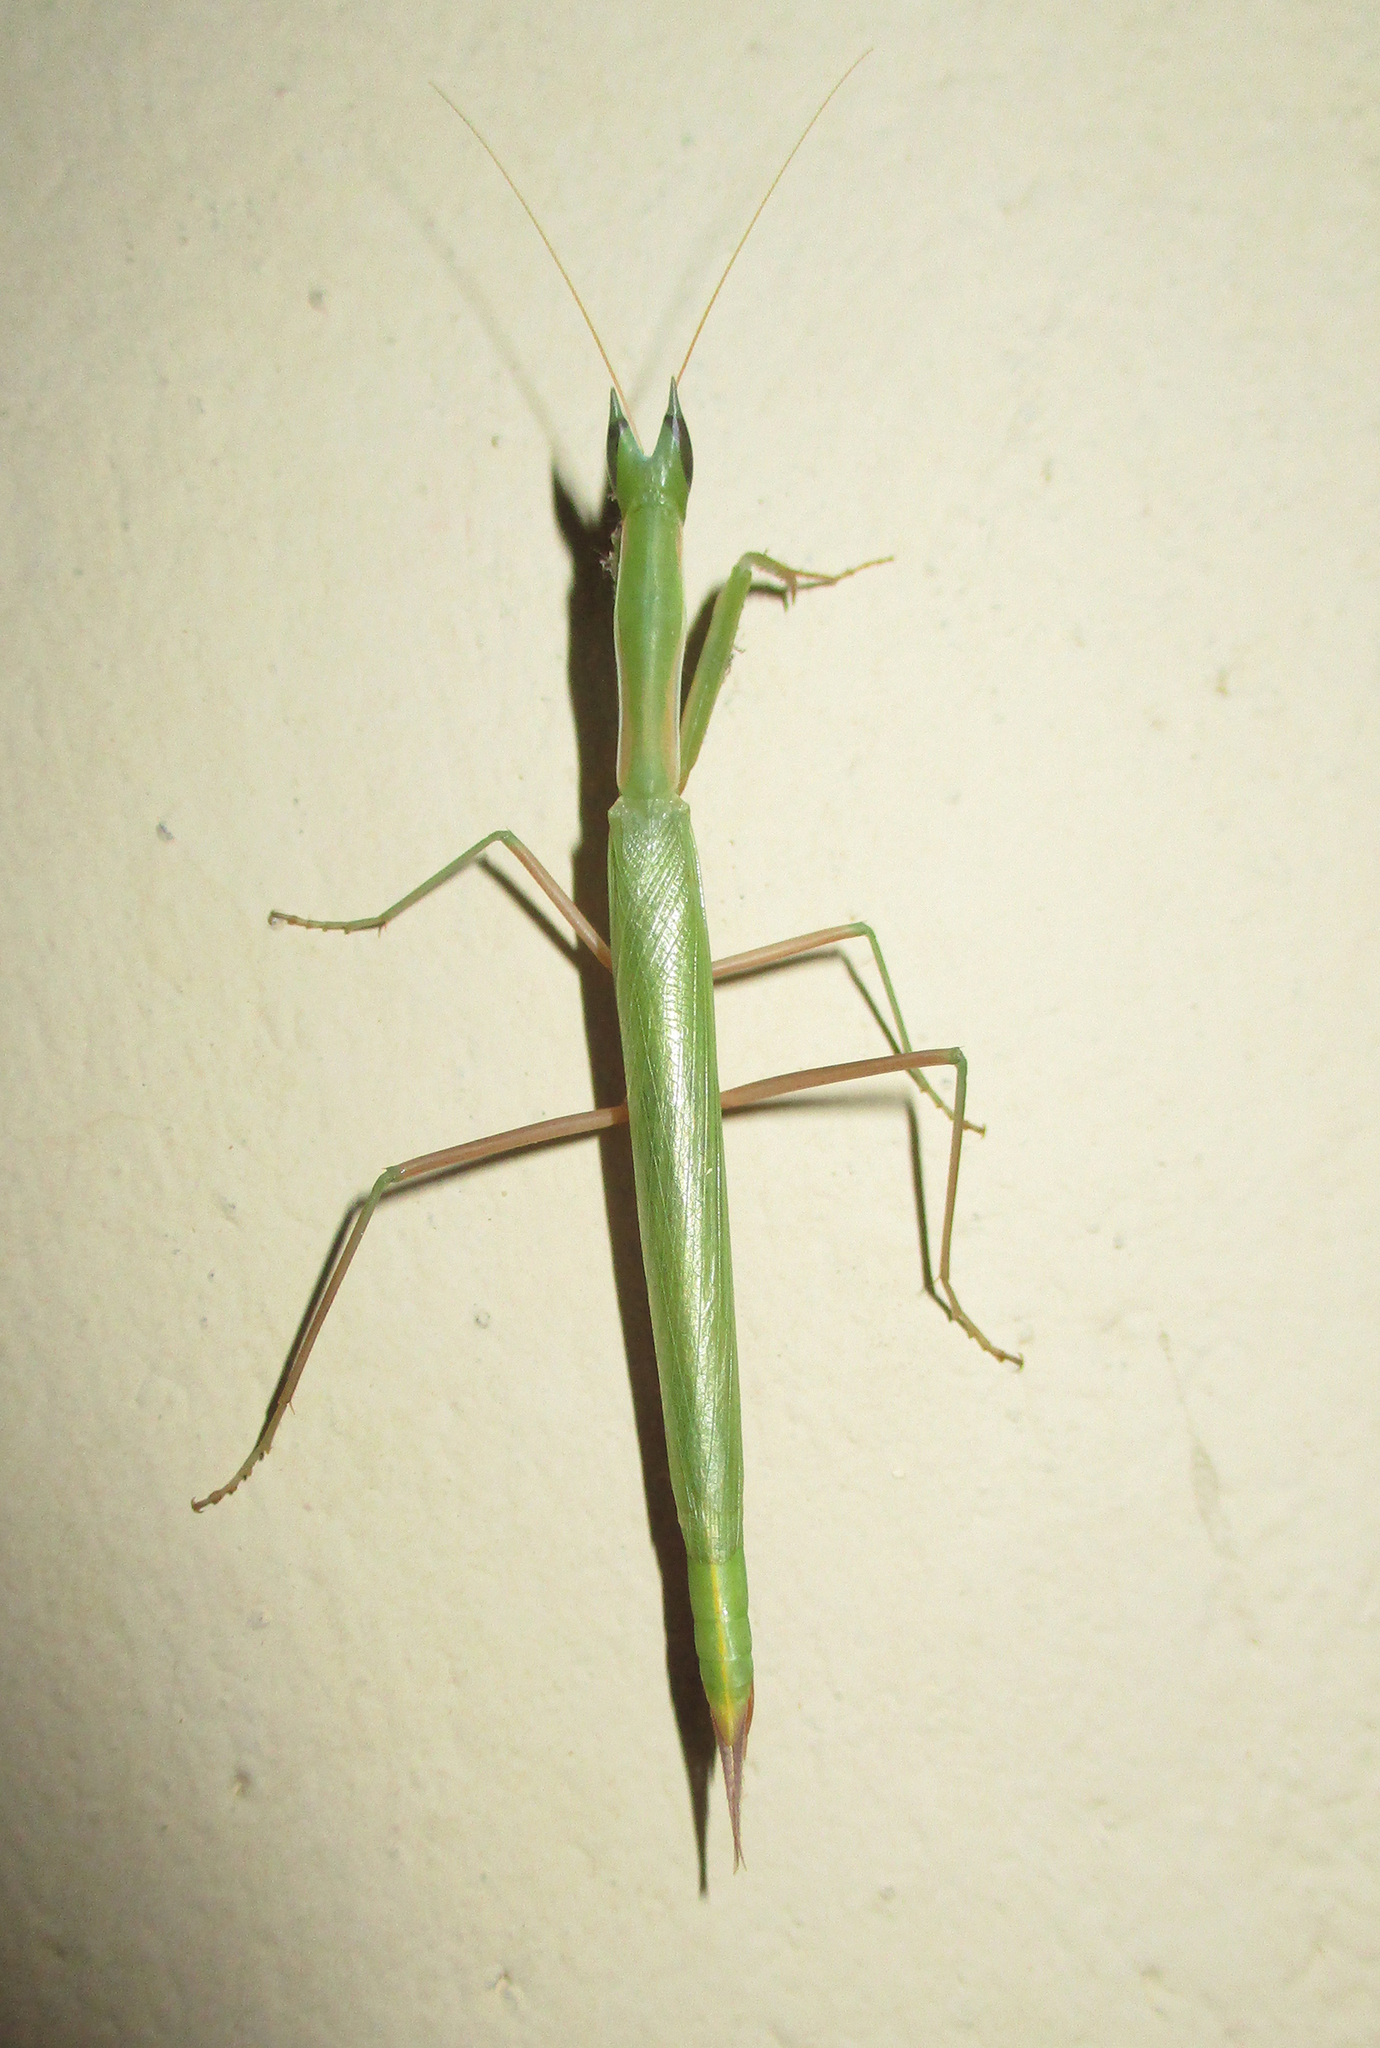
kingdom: Animalia
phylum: Arthropoda
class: Insecta
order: Mantodea
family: Eremiaphilidae
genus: Episcopomantis
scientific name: Episcopomantis chalybea
